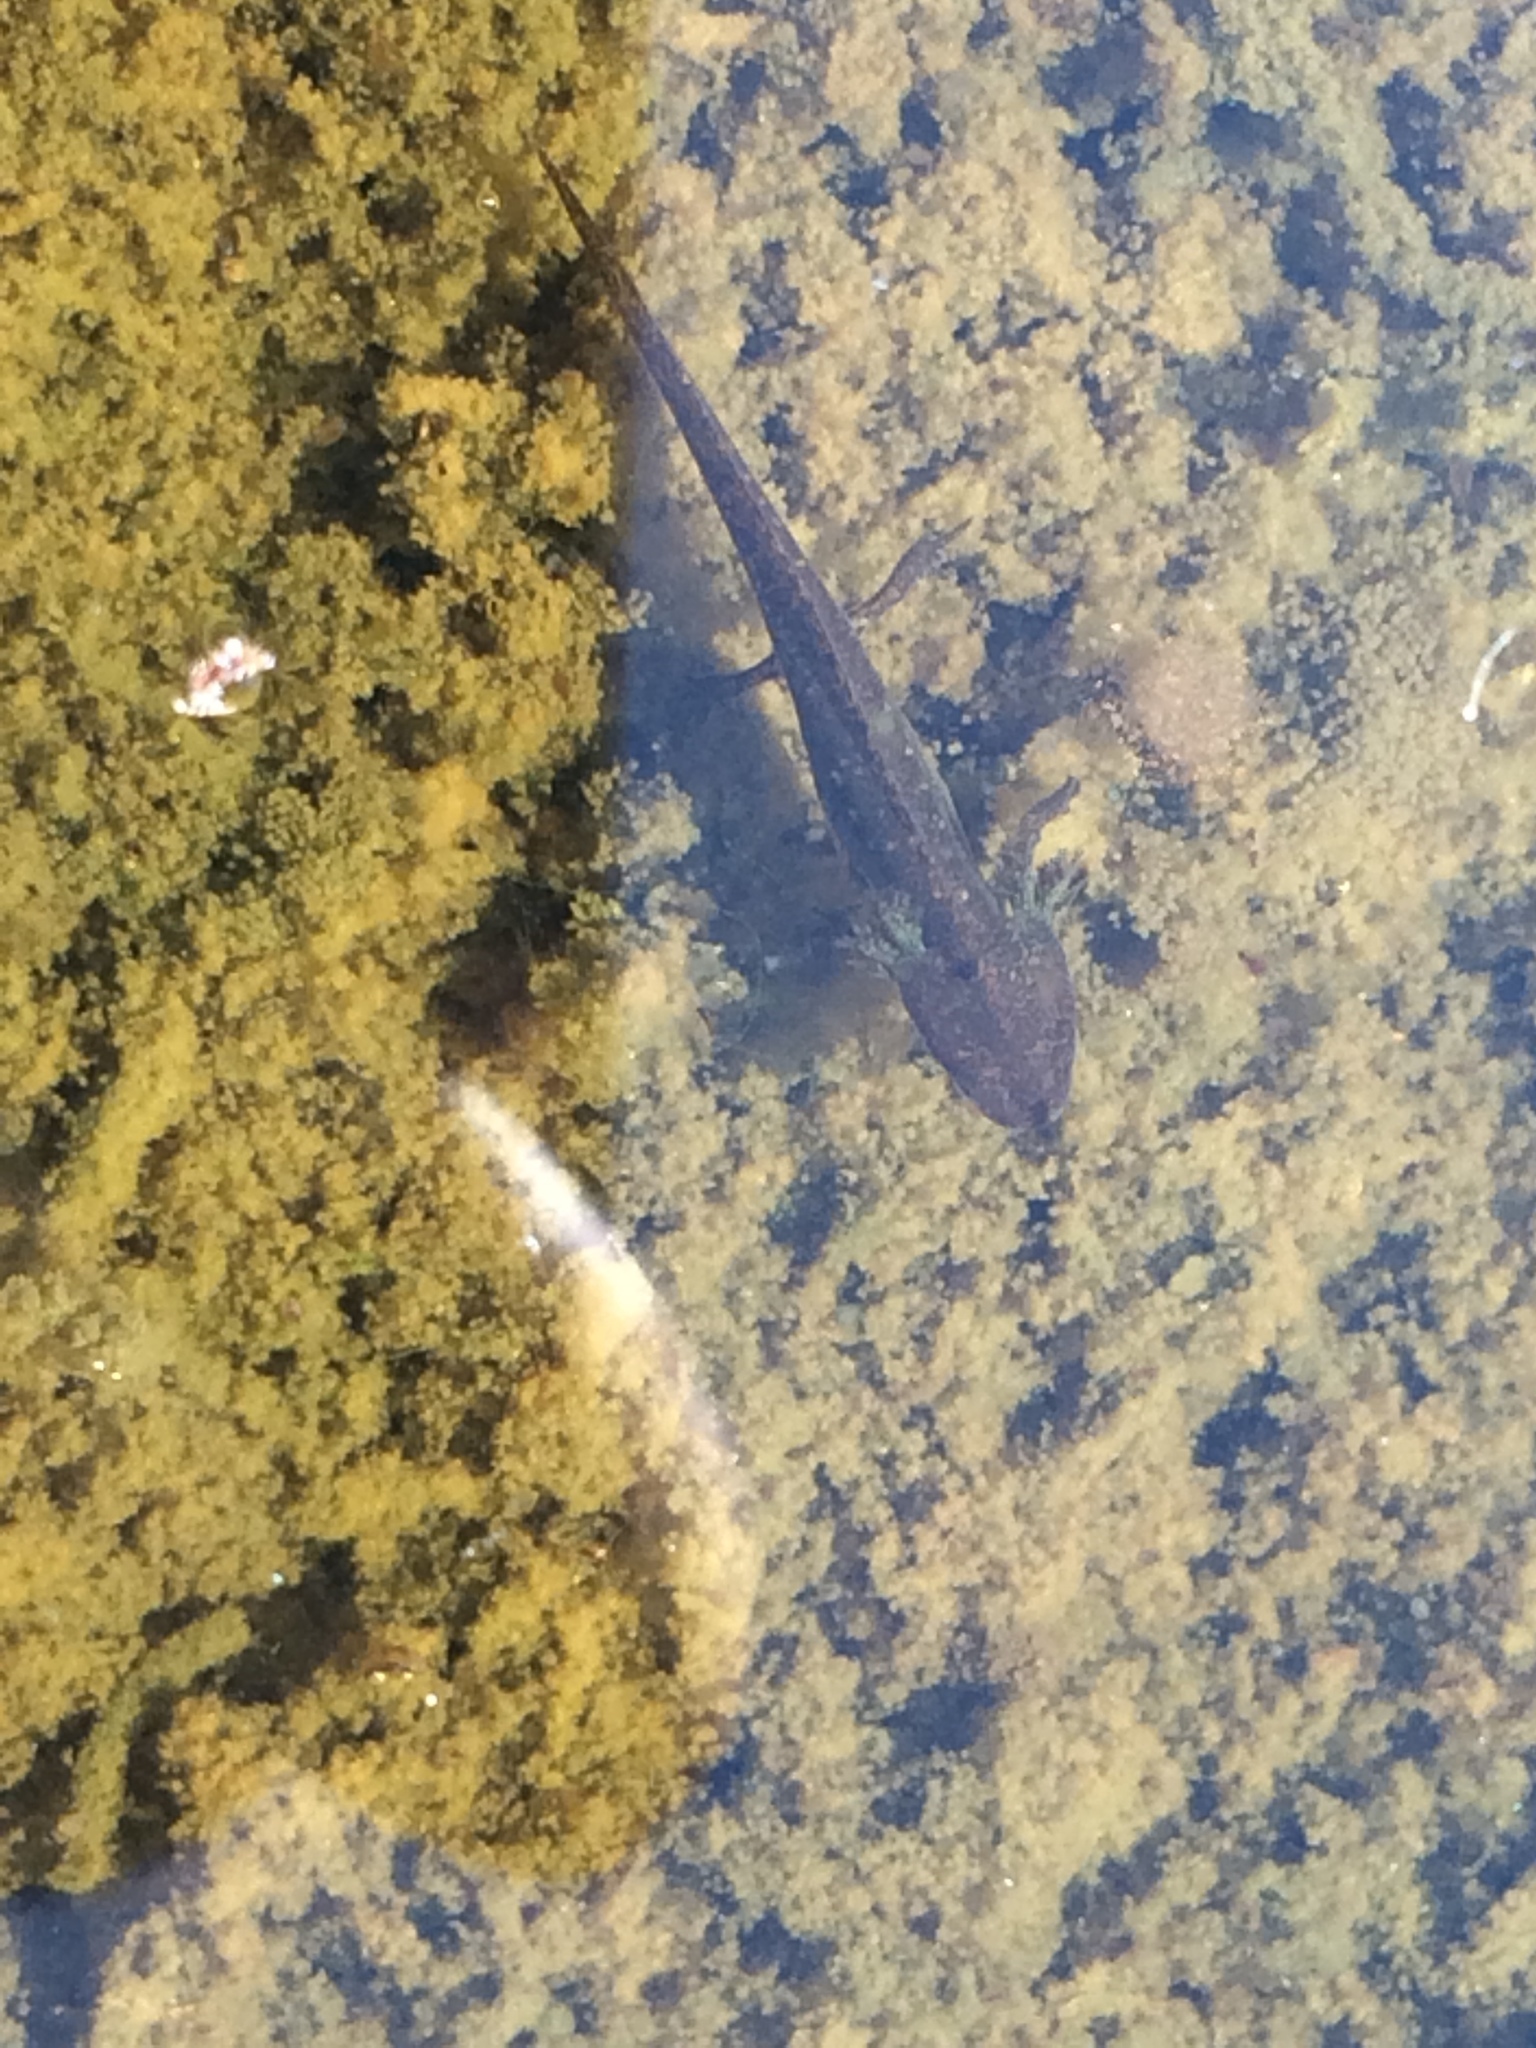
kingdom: Animalia
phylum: Chordata
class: Amphibia
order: Caudata
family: Salamandridae
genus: Lissotriton
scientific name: Lissotriton vulgaris
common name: Smooth newt
